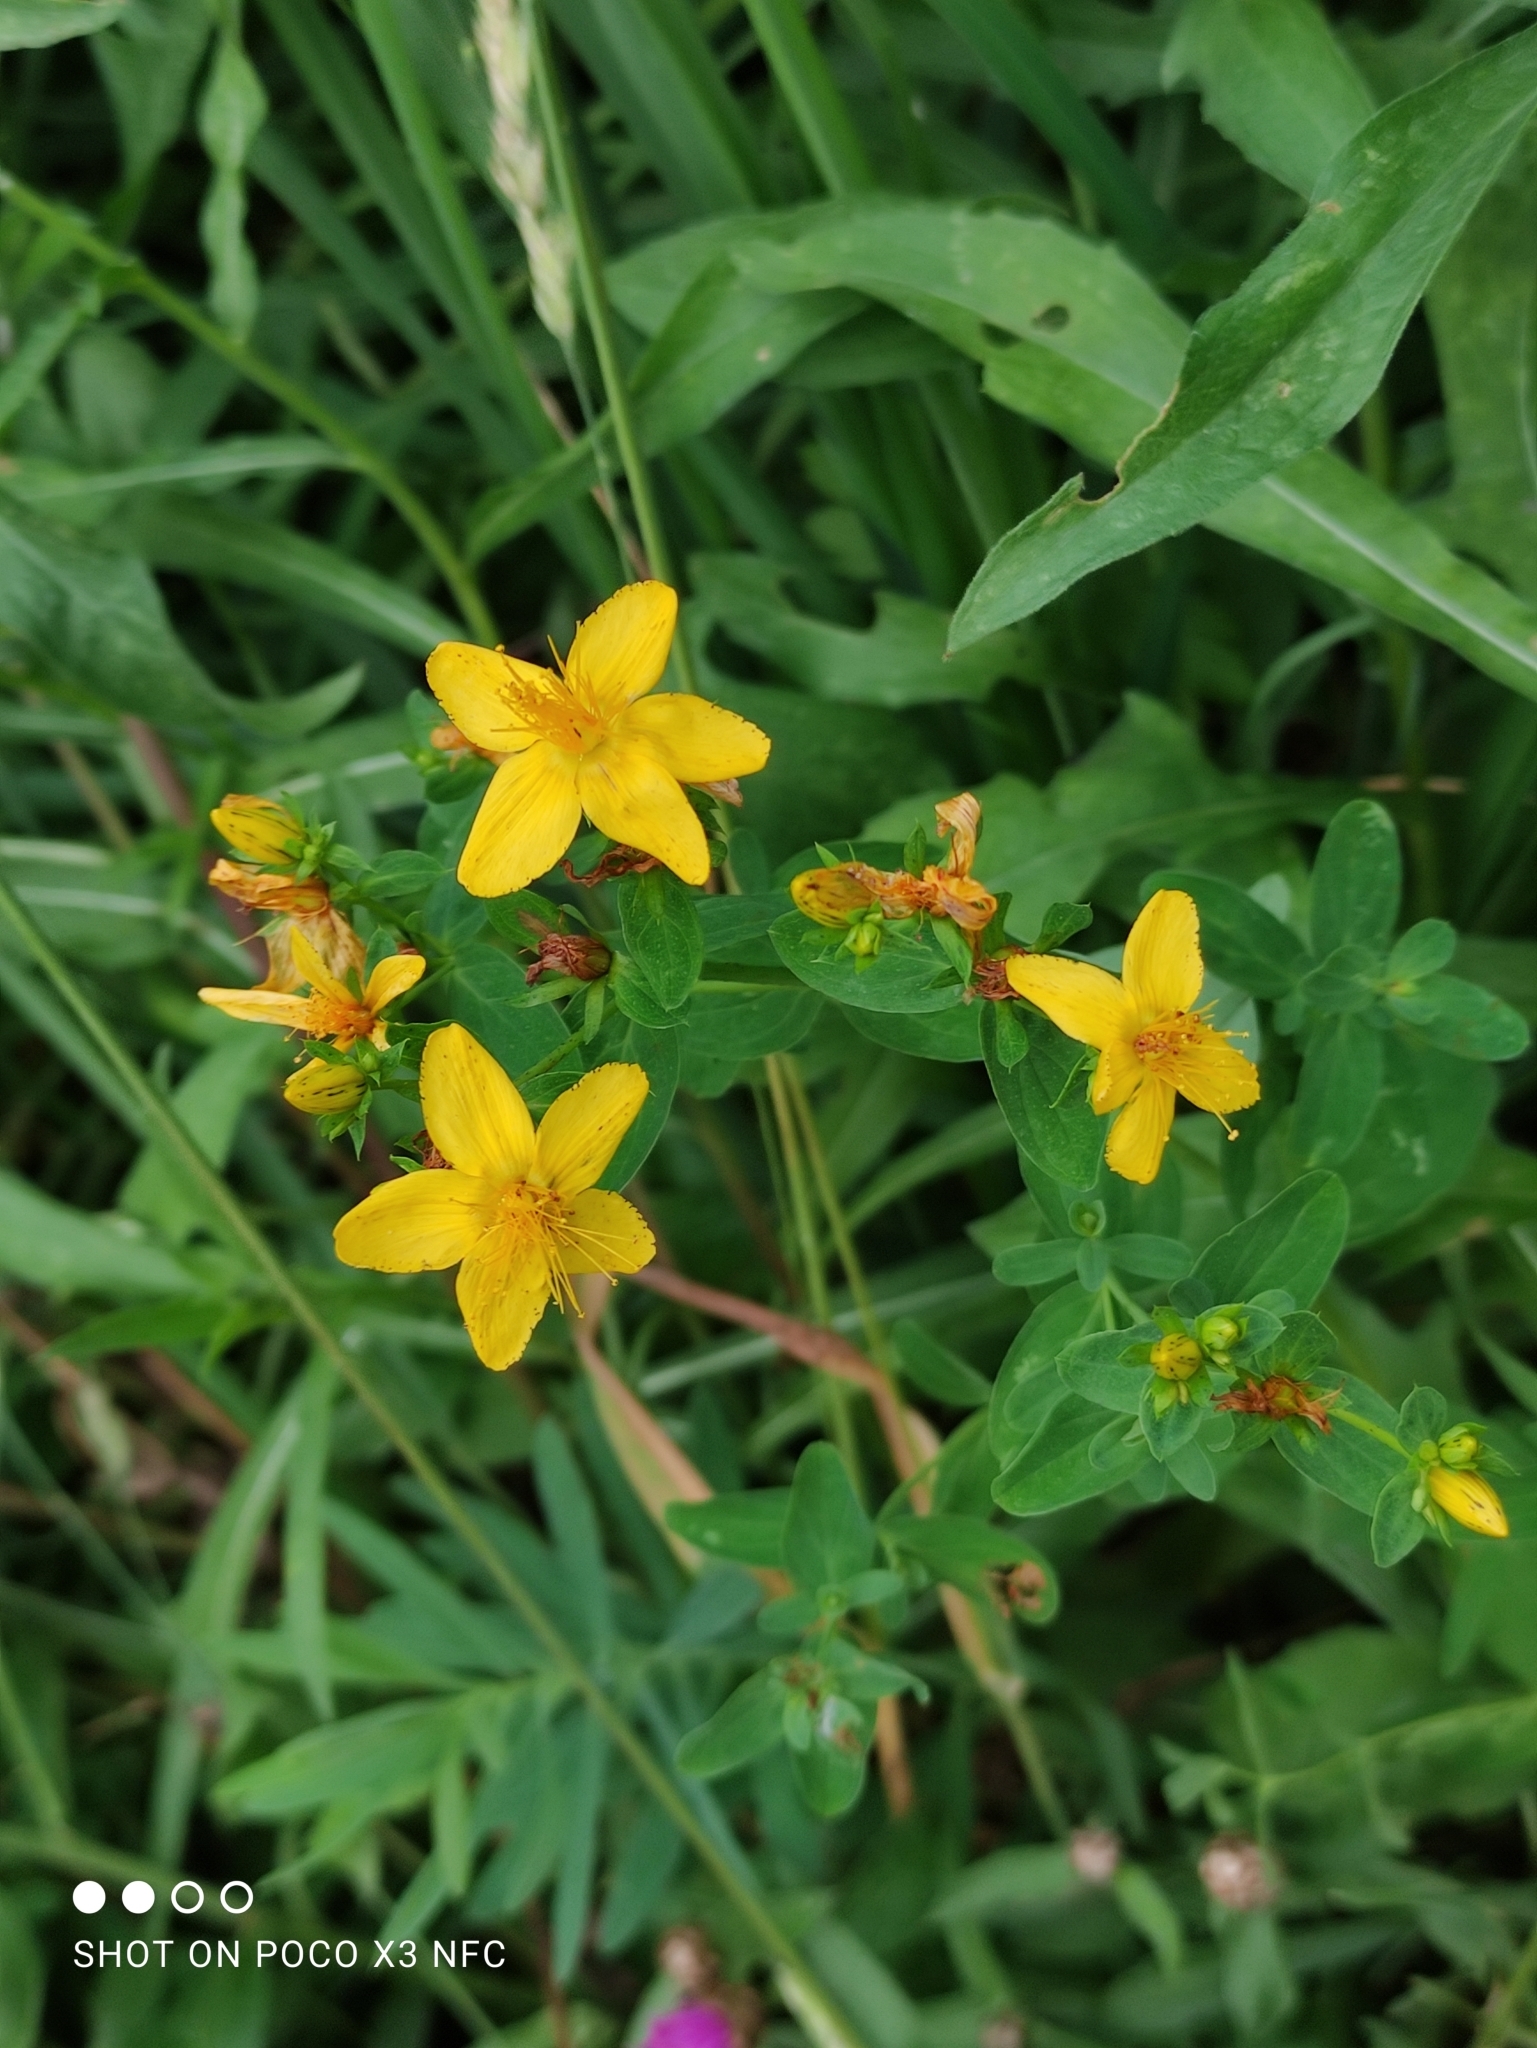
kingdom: Plantae
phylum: Tracheophyta
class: Magnoliopsida
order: Malpighiales
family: Hypericaceae
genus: Hypericum
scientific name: Hypericum perforatum
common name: Common st. johnswort
